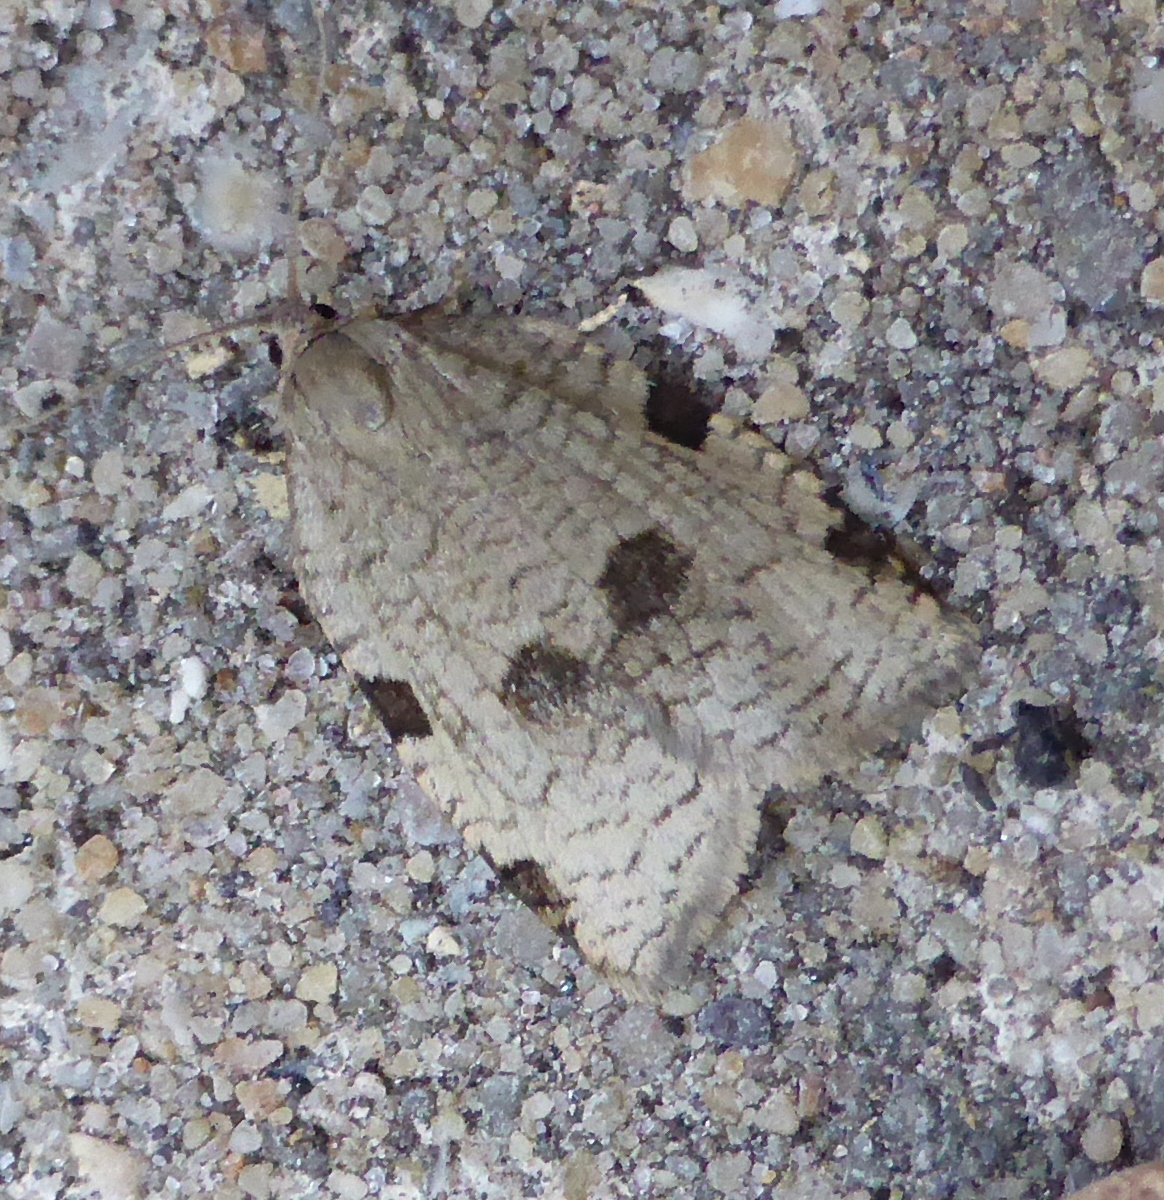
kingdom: Animalia
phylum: Arthropoda
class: Insecta
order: Lepidoptera
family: Tortricidae
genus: Lozotaenia
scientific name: Lozotaenia forsterana
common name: Large ivy twist
